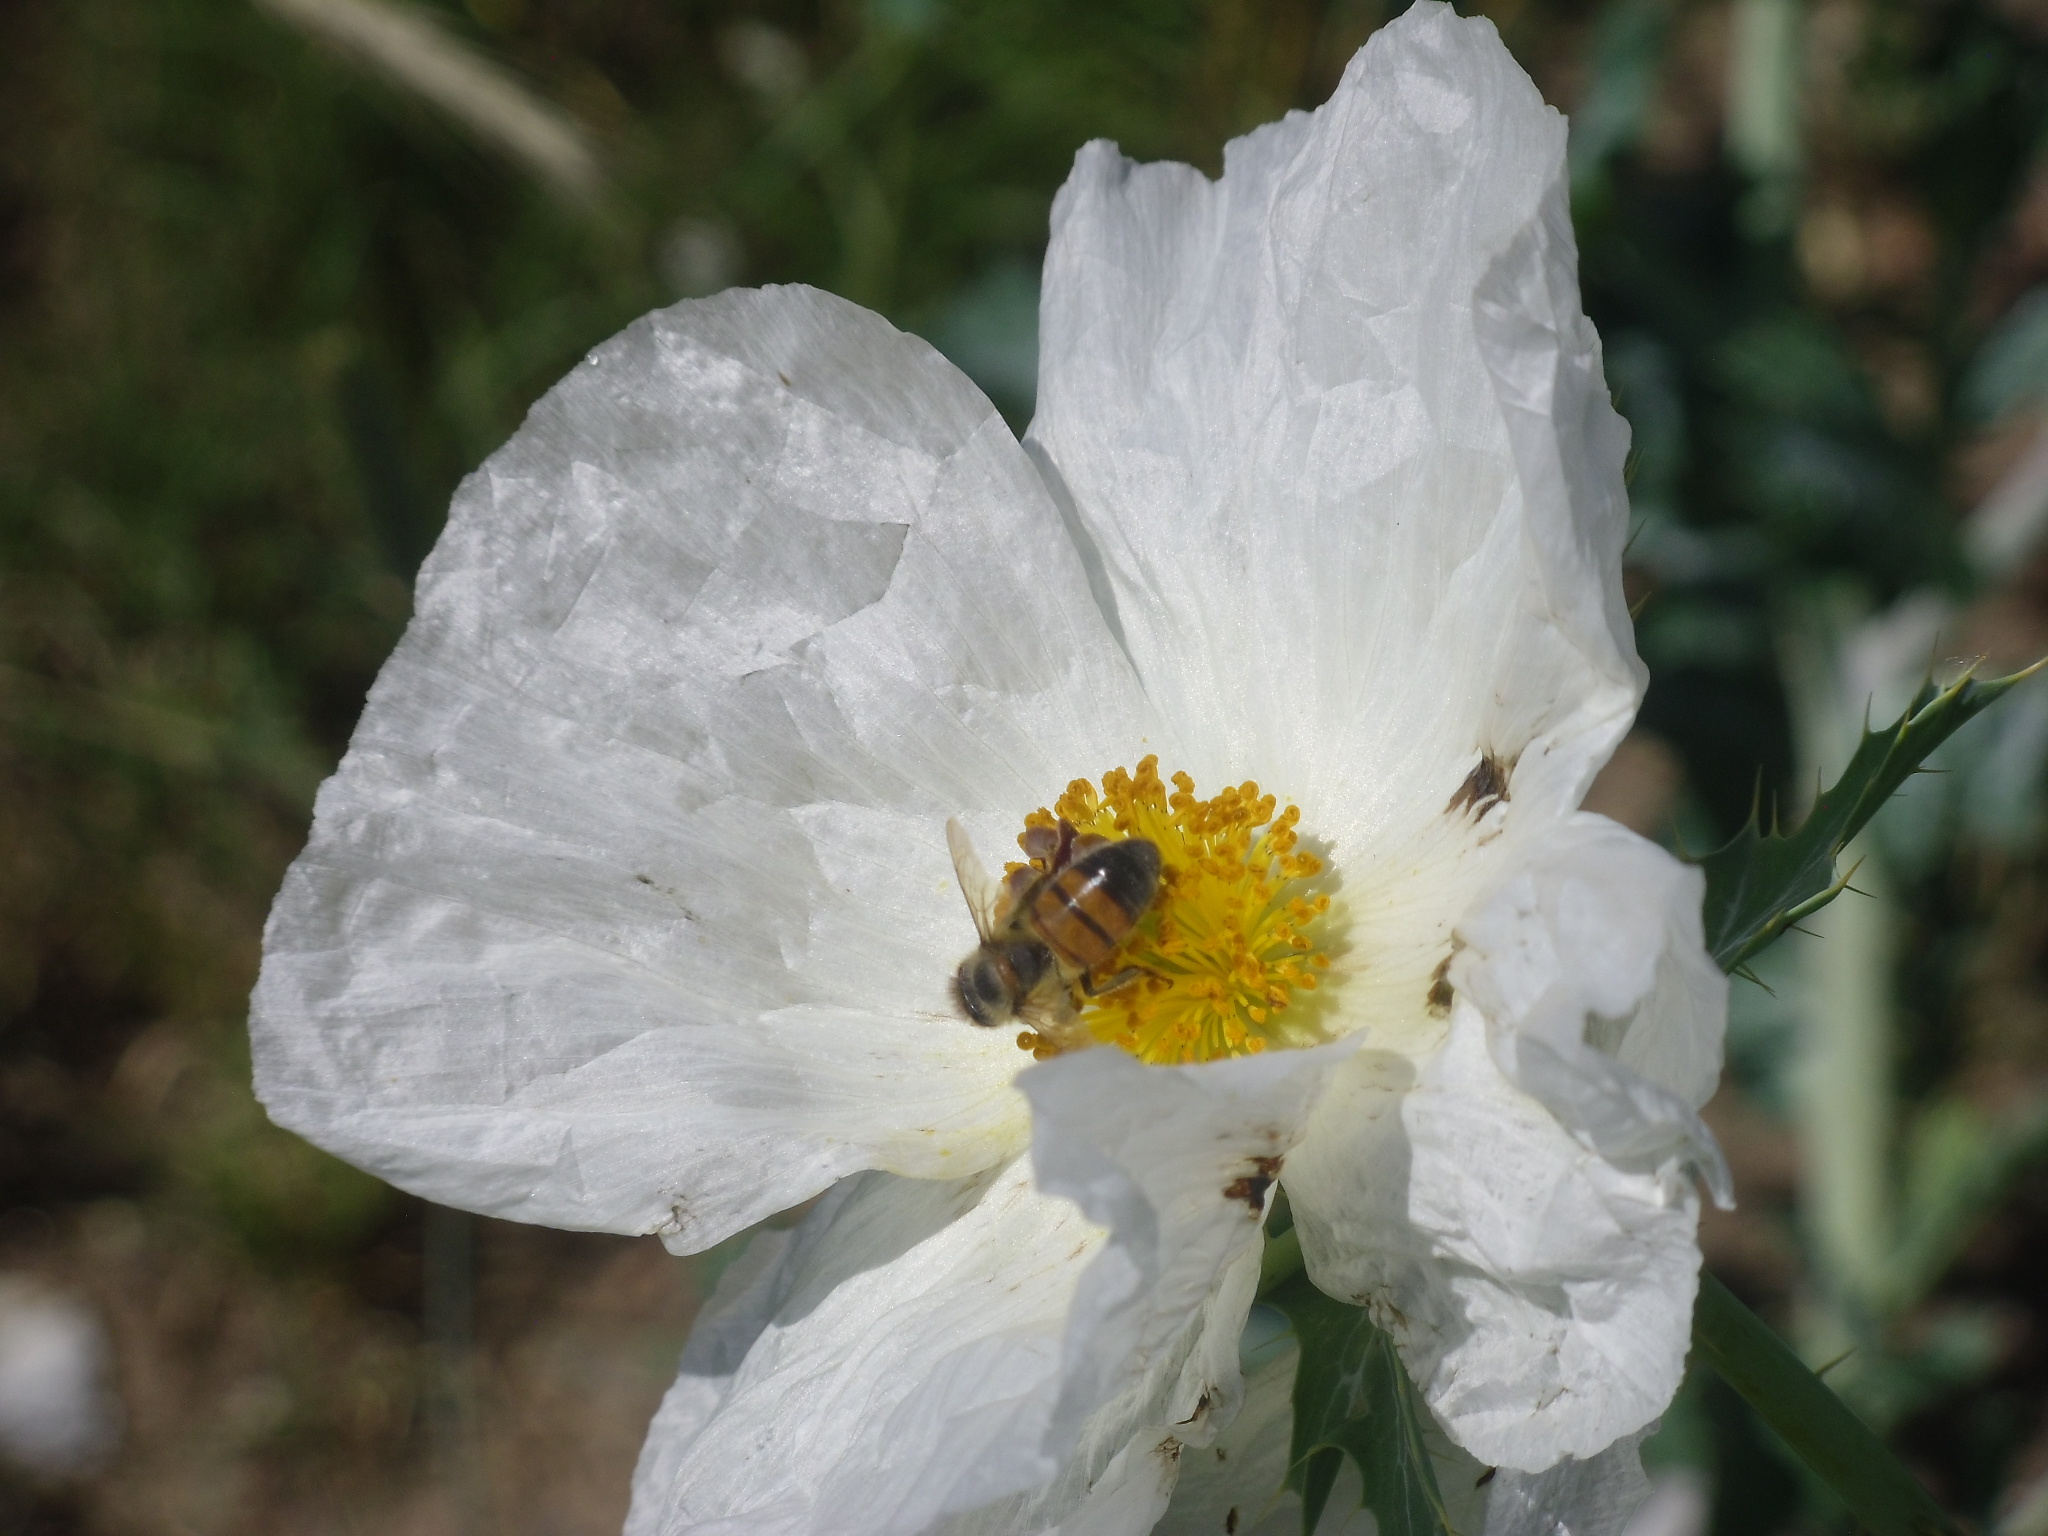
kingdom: Animalia
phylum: Arthropoda
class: Insecta
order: Hymenoptera
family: Apidae
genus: Apis
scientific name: Apis mellifera
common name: Honey bee
